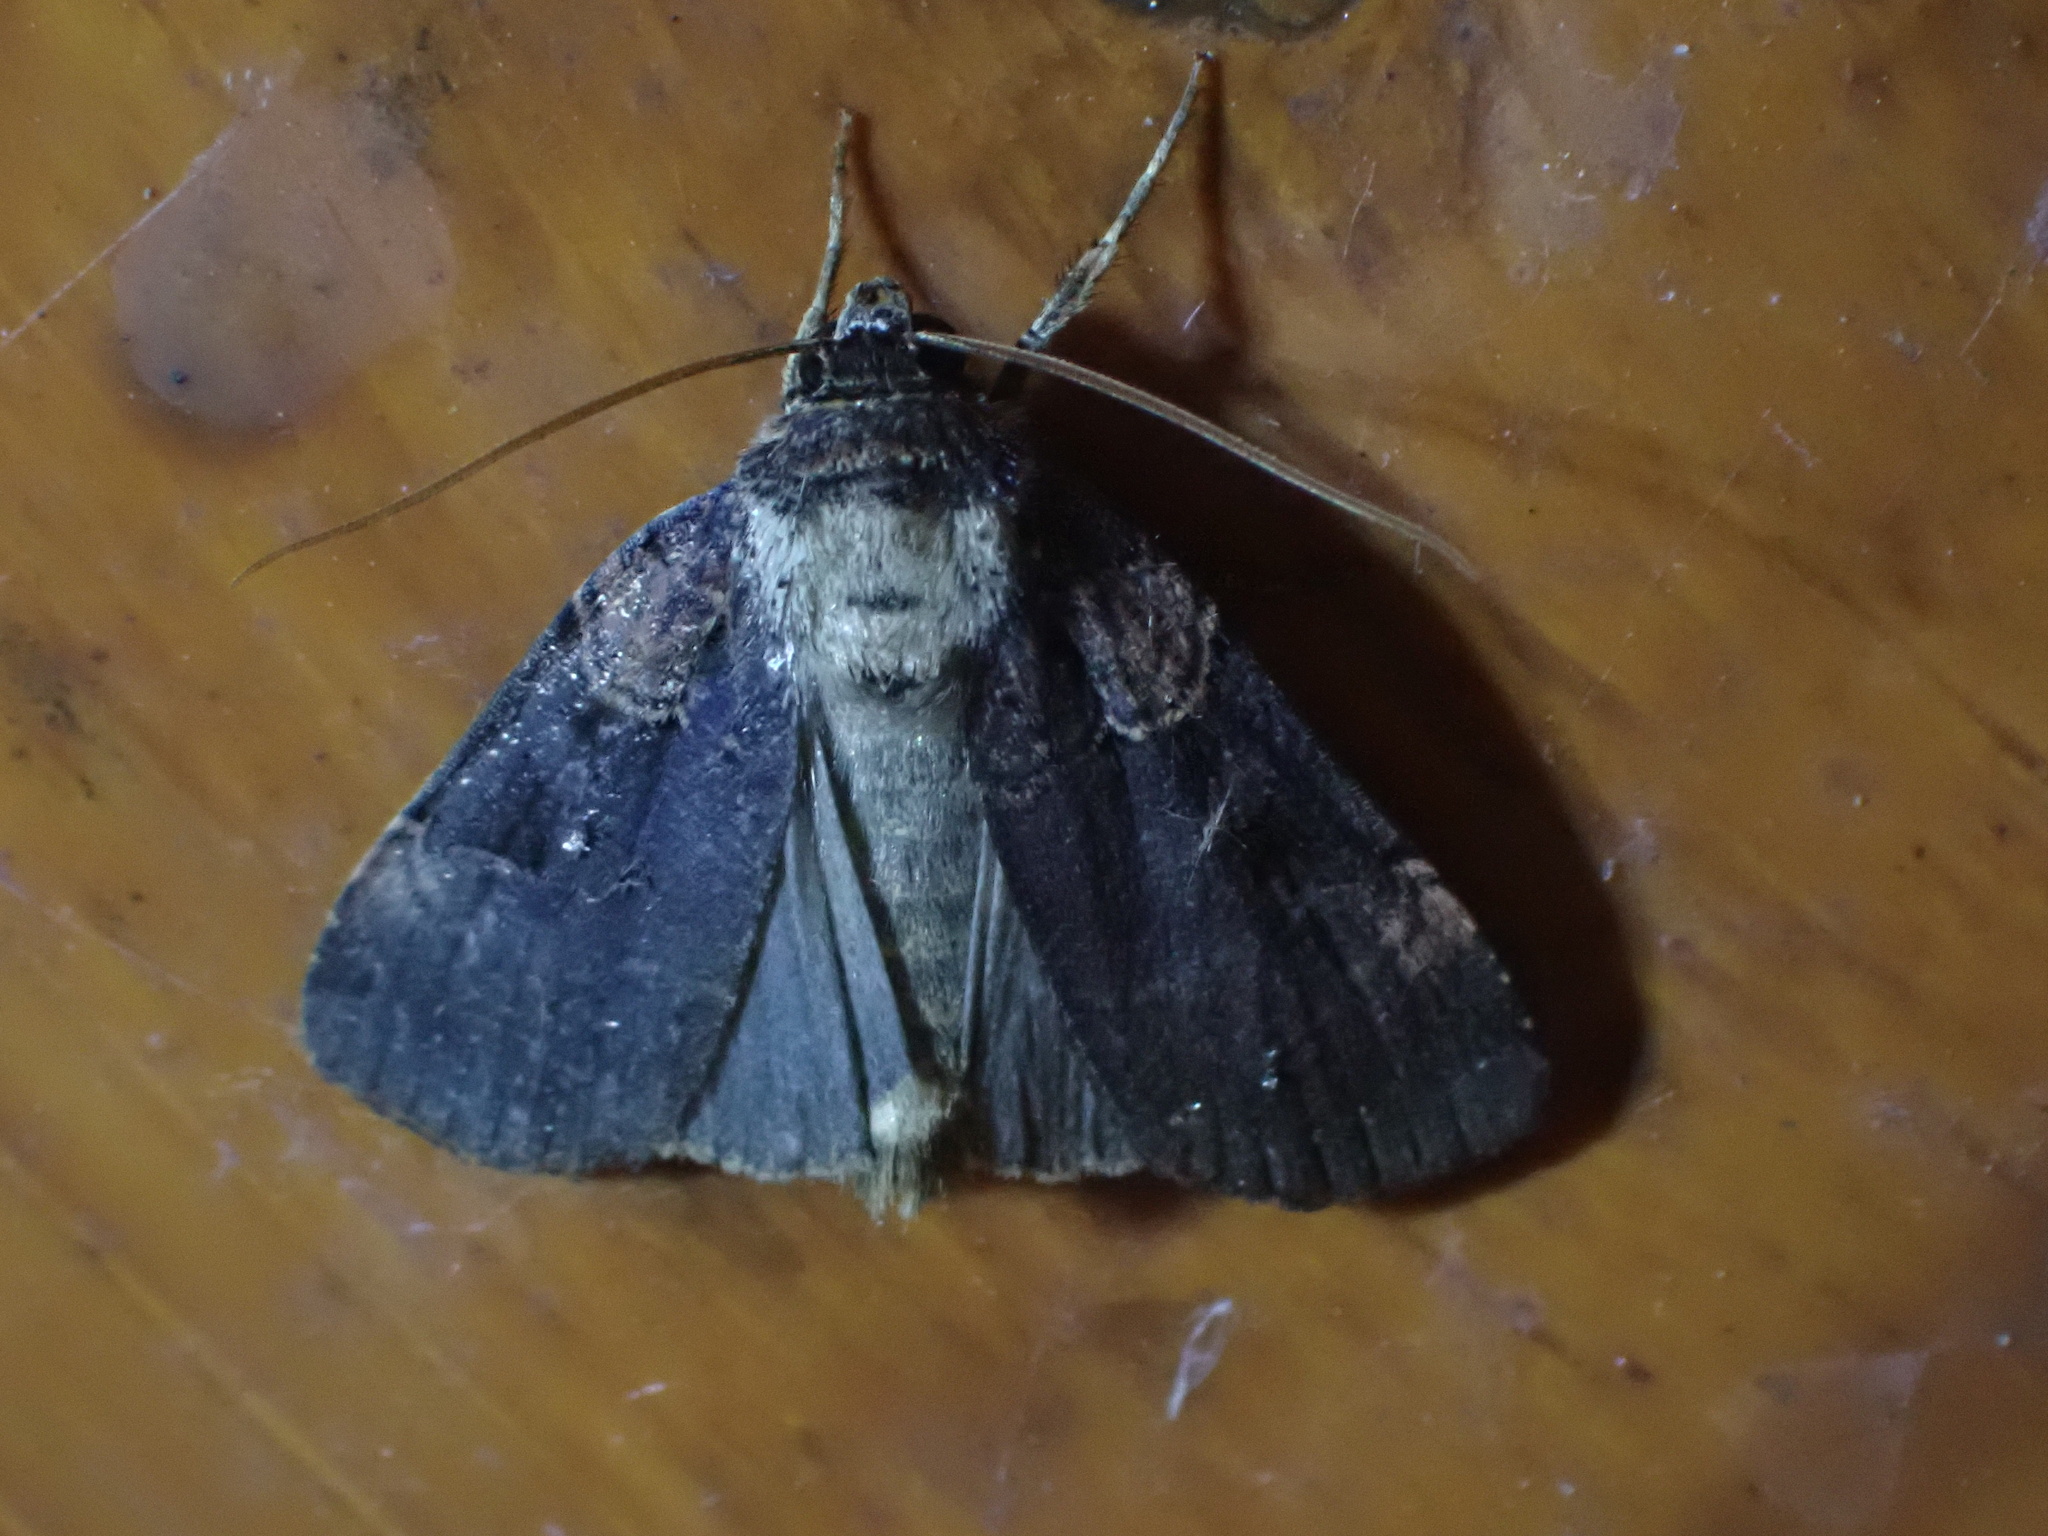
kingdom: Animalia
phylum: Arthropoda
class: Insecta
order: Lepidoptera
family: Noctuidae
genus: Pseudohermonassa
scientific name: Pseudohermonassa bicarnea
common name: Pink spotted dart
